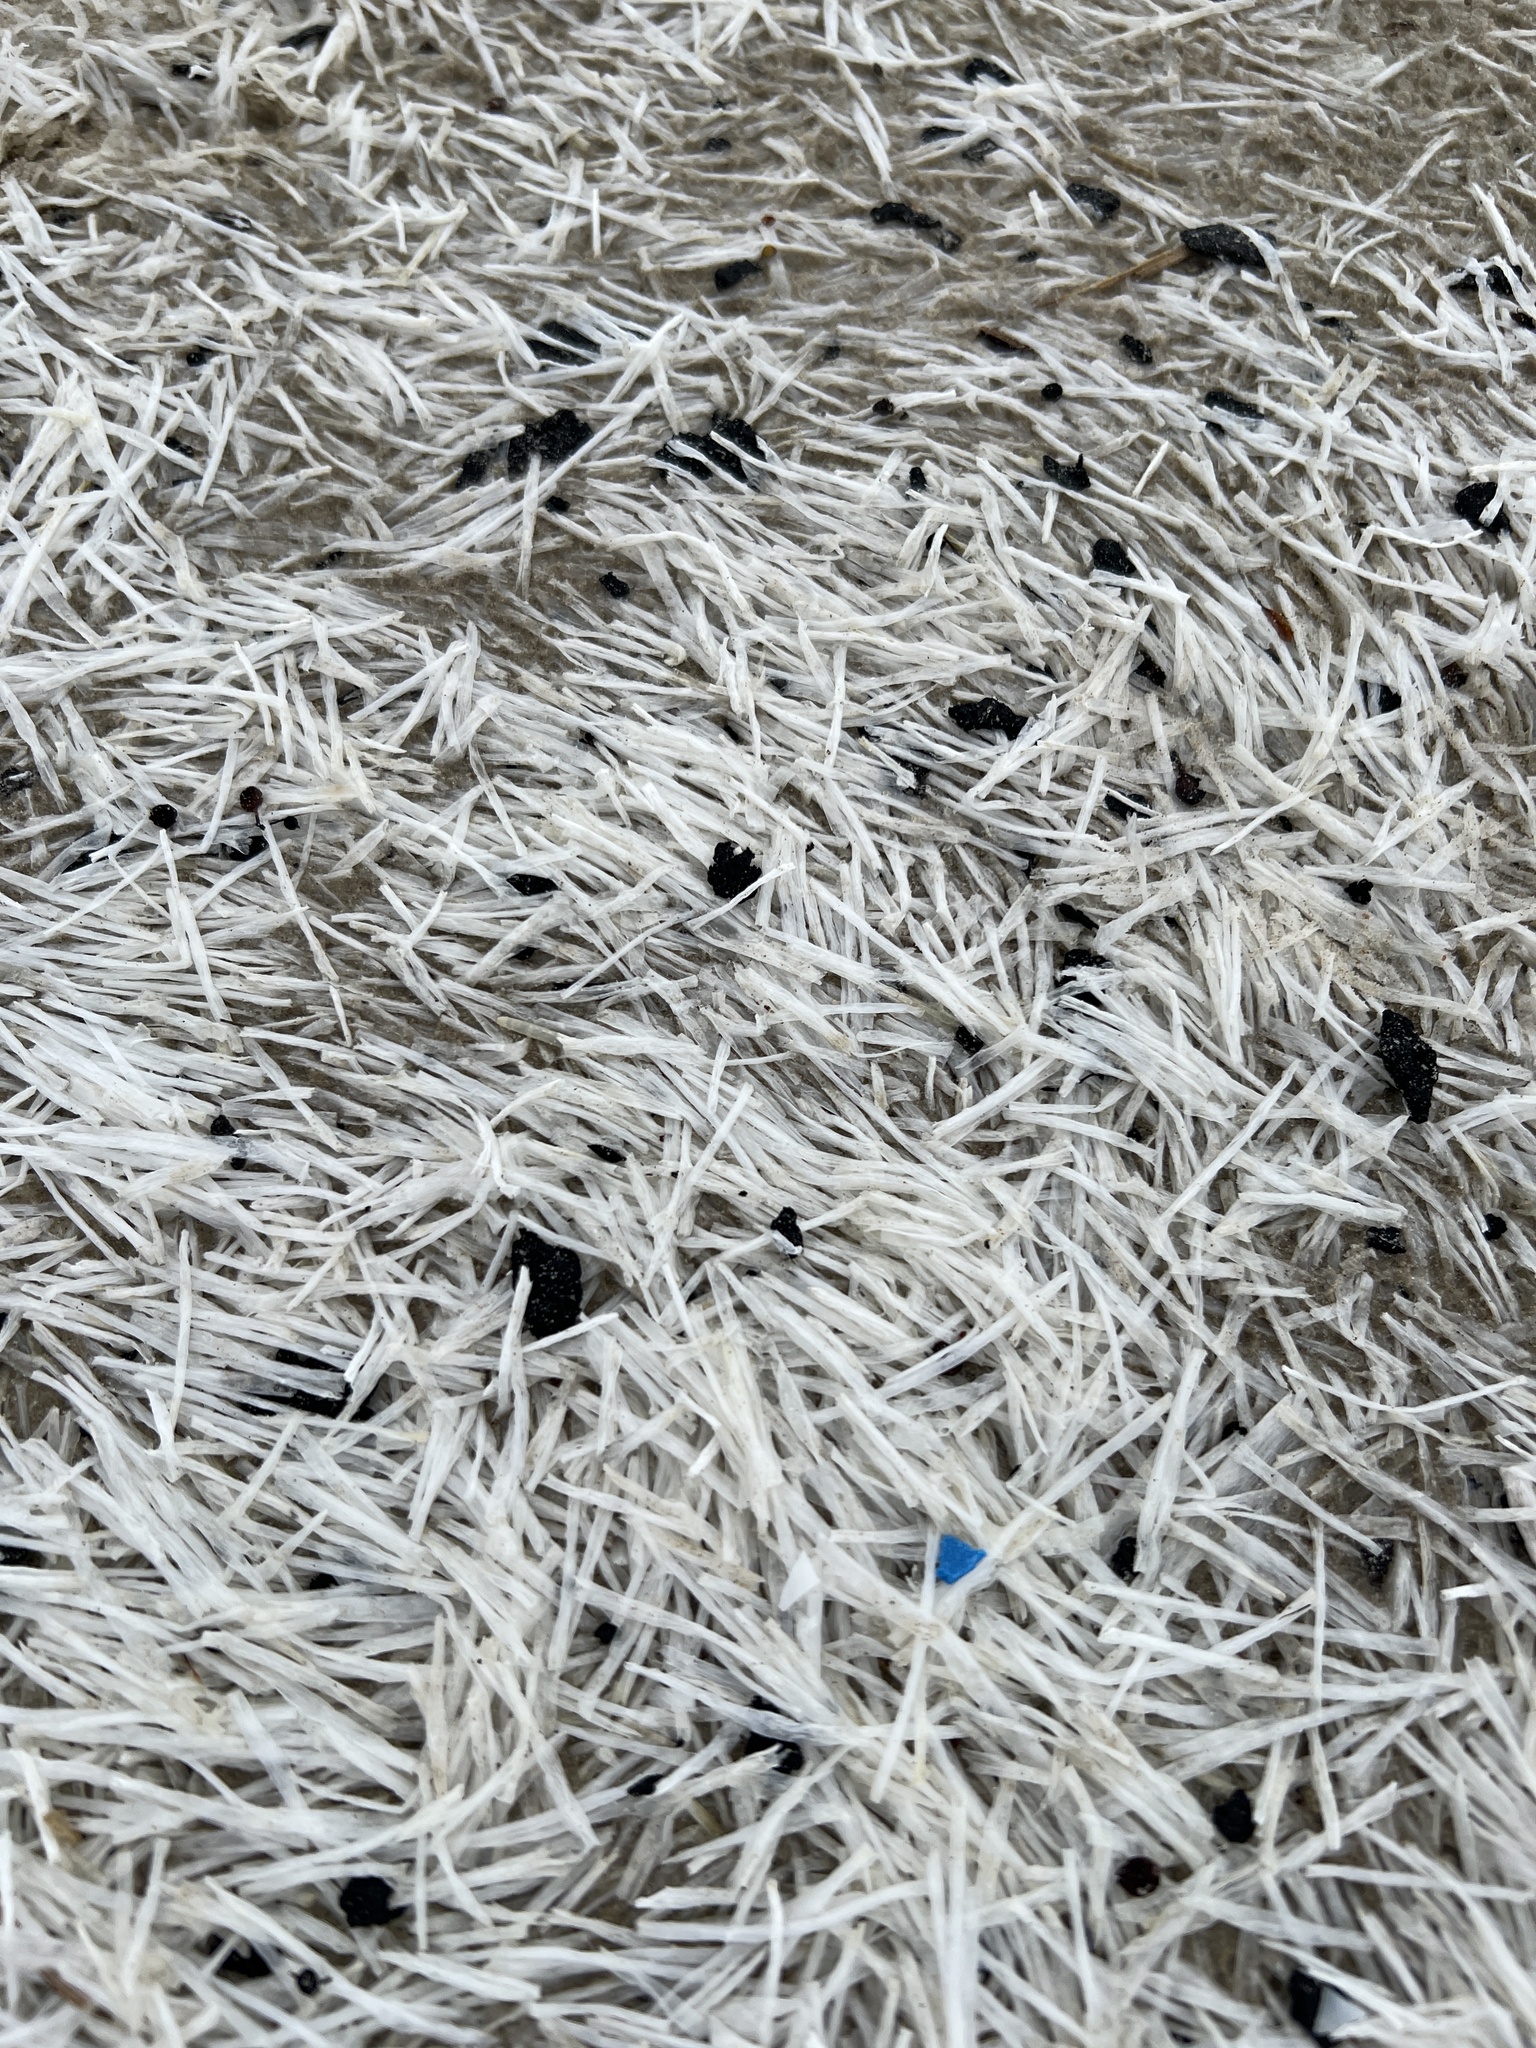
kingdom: Plantae
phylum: Tracheophyta
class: Liliopsida
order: Alismatales
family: Cymodoceaceae
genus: Syringodium
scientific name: Syringodium filiforme
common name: Manatee grass
